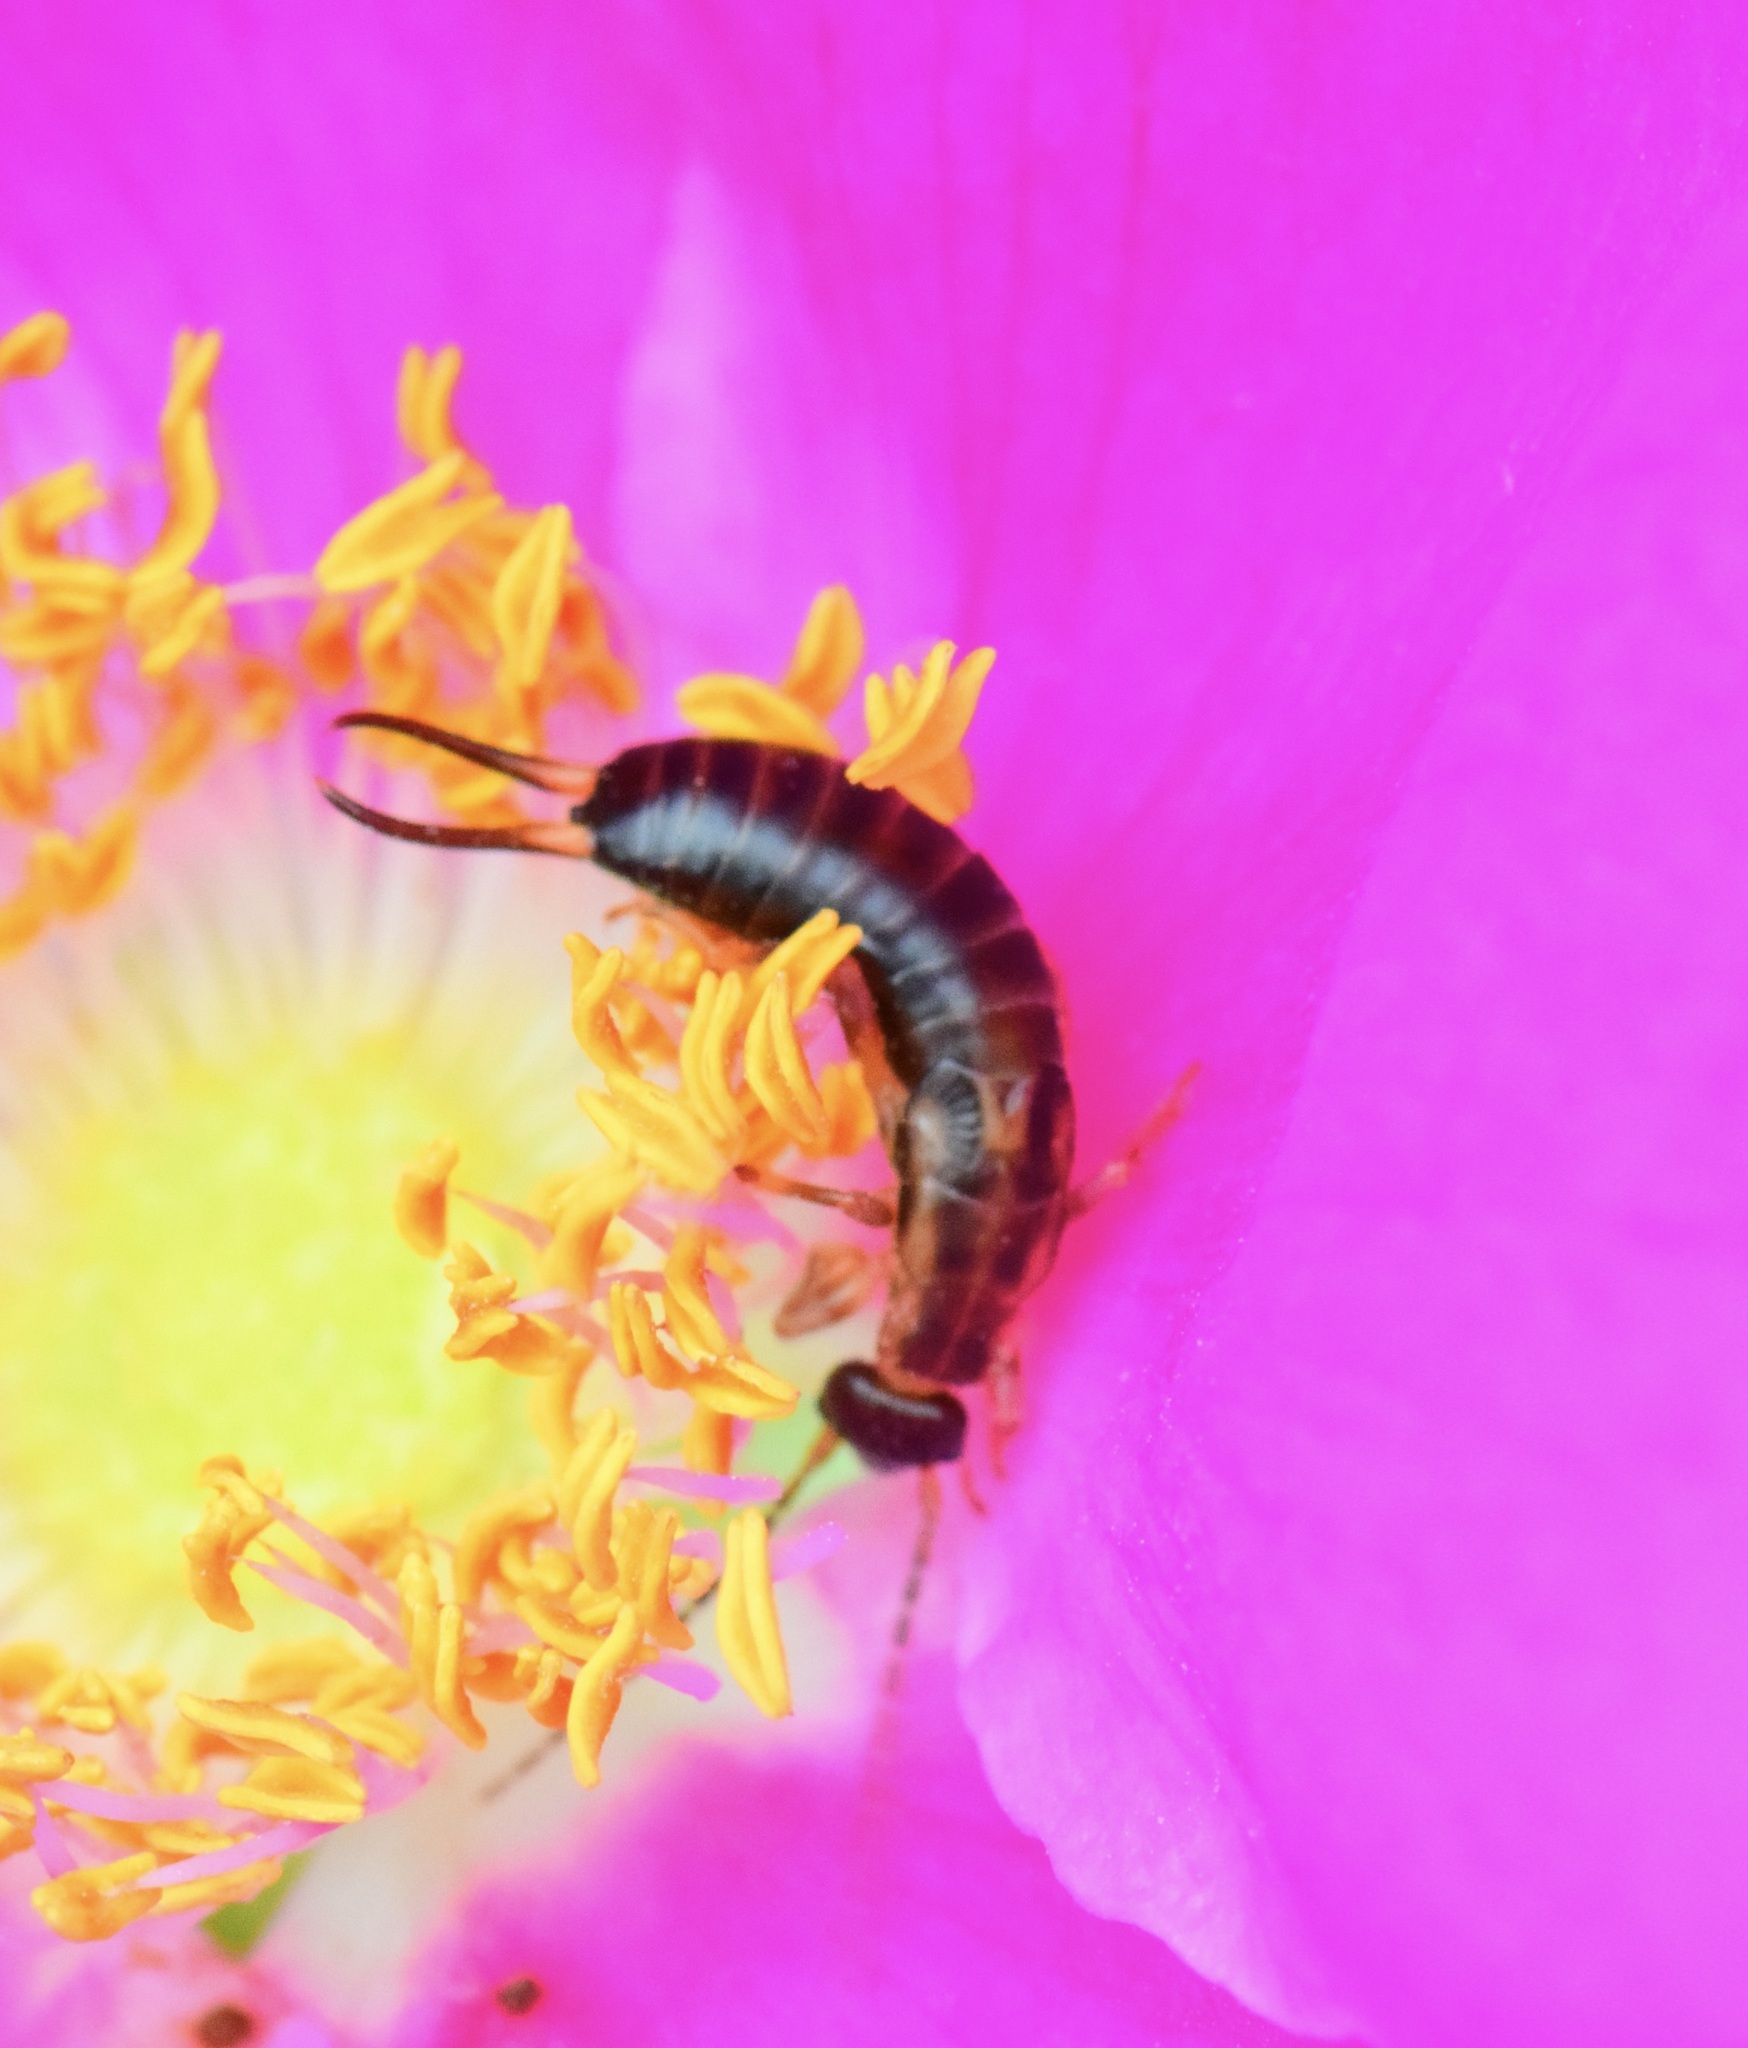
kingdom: Animalia
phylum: Arthropoda
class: Insecta
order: Dermaptera
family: Forficulidae
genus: Forficula
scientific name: Forficula
